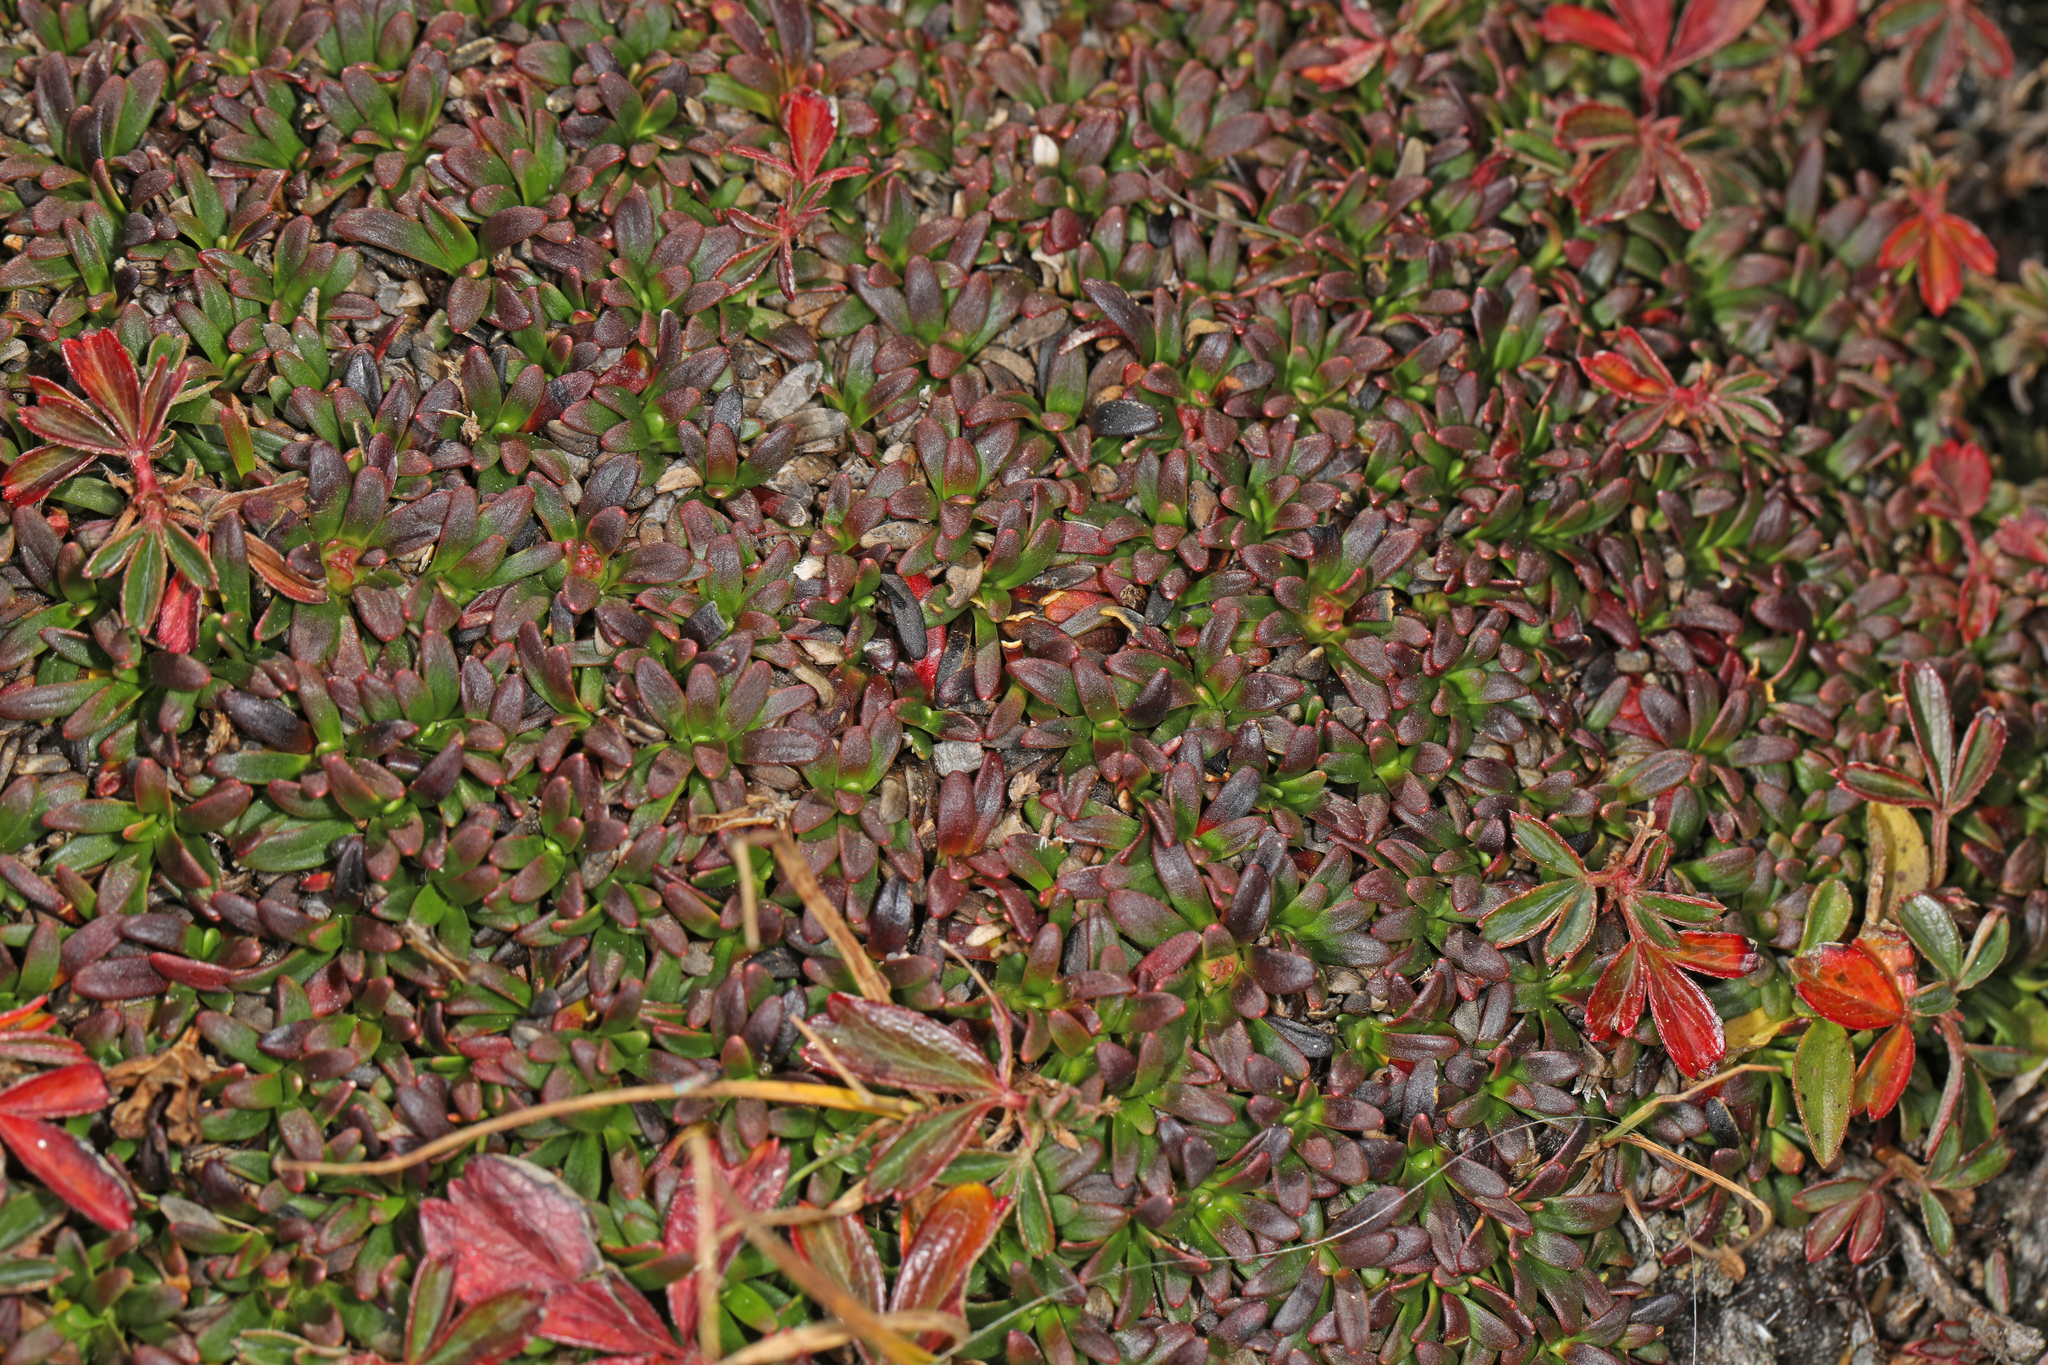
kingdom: Plantae
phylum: Tracheophyta
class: Magnoliopsida
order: Ericales
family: Diapensiaceae
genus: Diapensia
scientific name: Diapensia lapponica
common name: Diapensia
